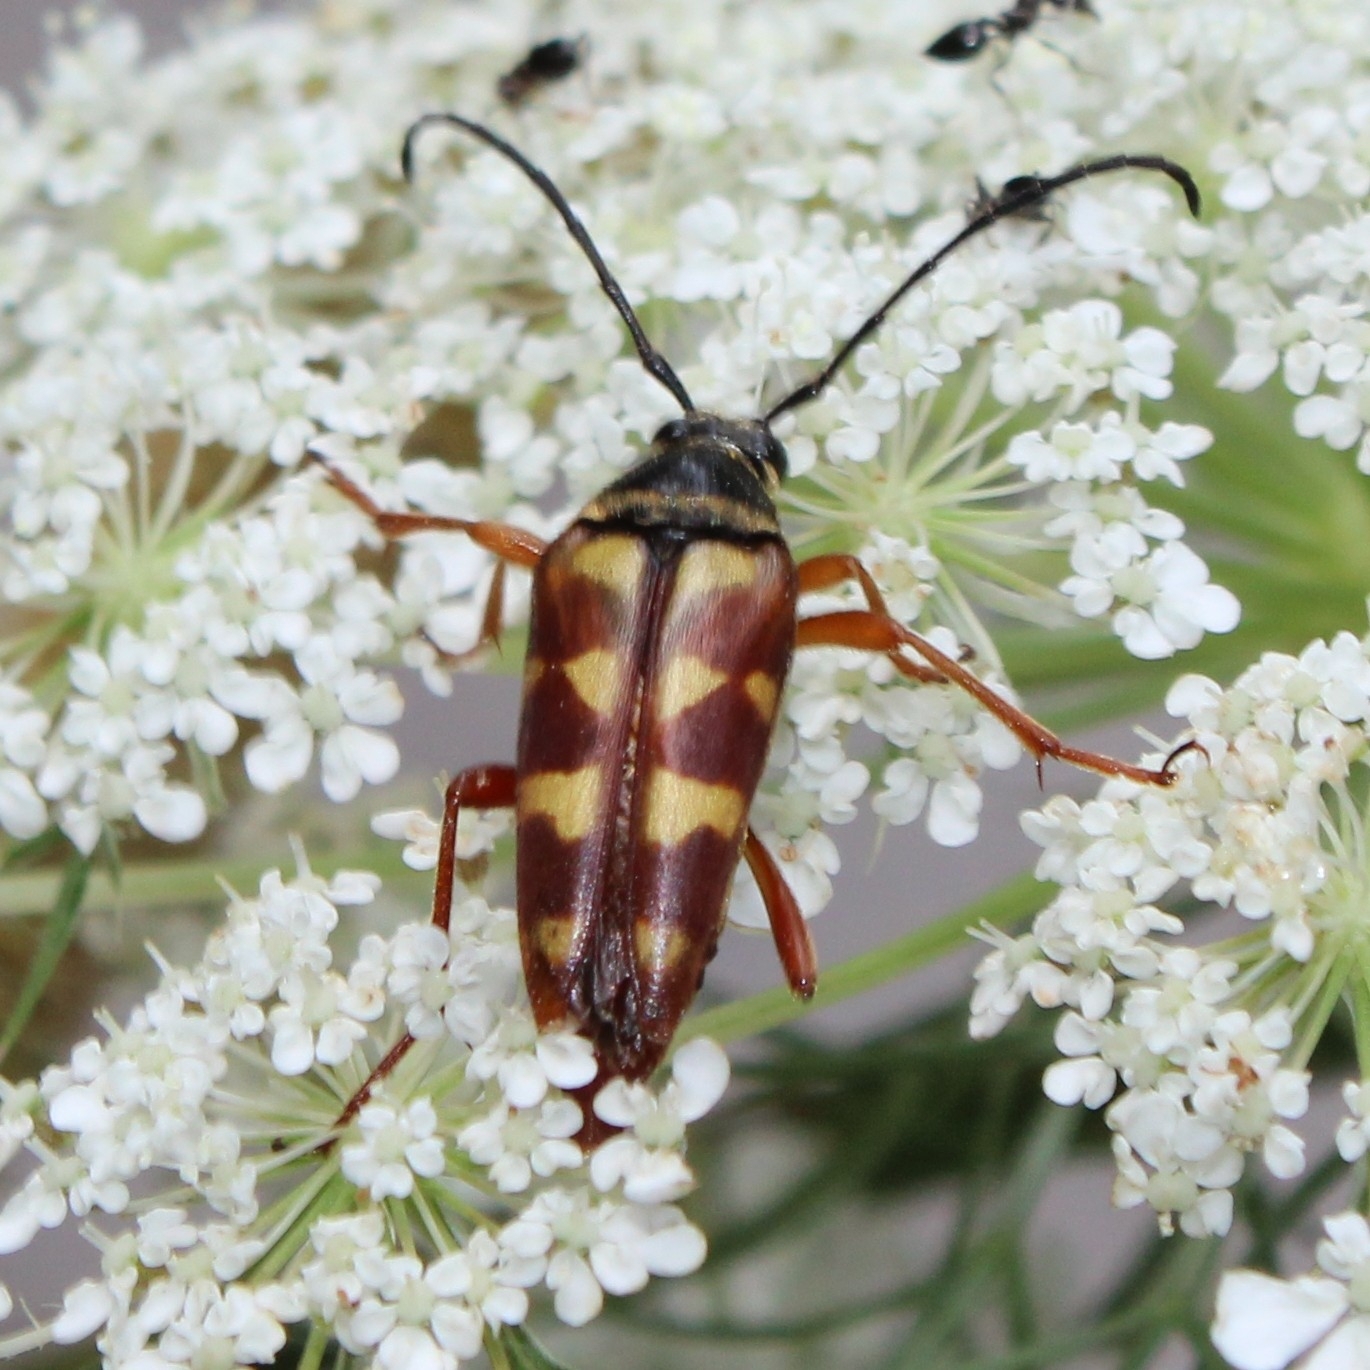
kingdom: Animalia
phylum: Arthropoda
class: Insecta
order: Coleoptera
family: Cerambycidae
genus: Typocerus
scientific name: Typocerus velutinus
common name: Banded longhorn beetle
